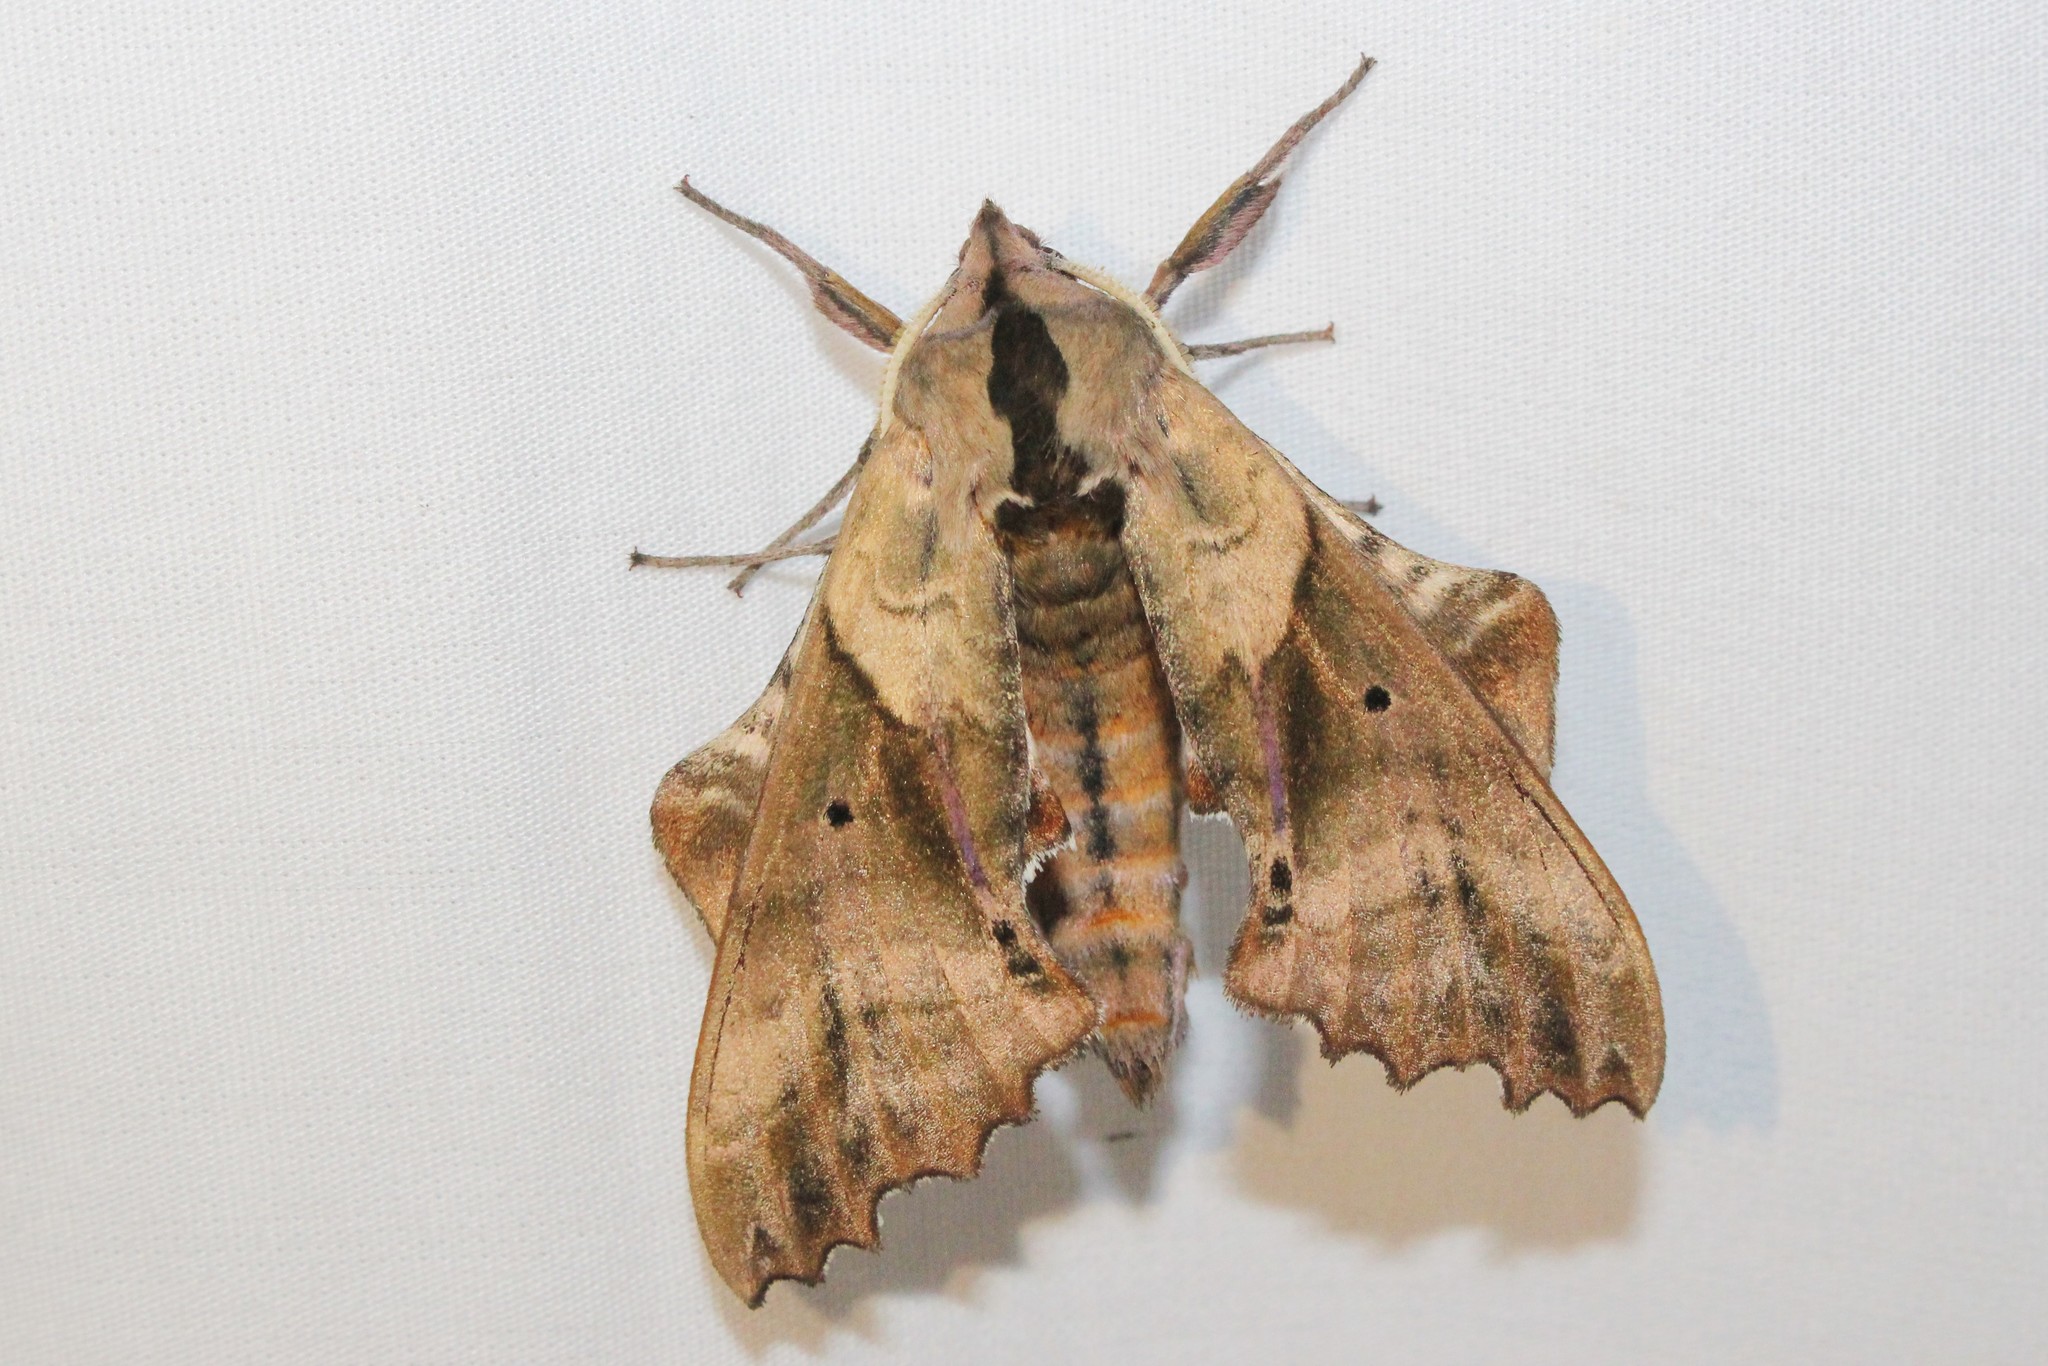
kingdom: Animalia
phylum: Arthropoda
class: Insecta
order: Lepidoptera
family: Sphingidae
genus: Paonias
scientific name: Paonias excaecata
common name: Blind-eyed sphinx
